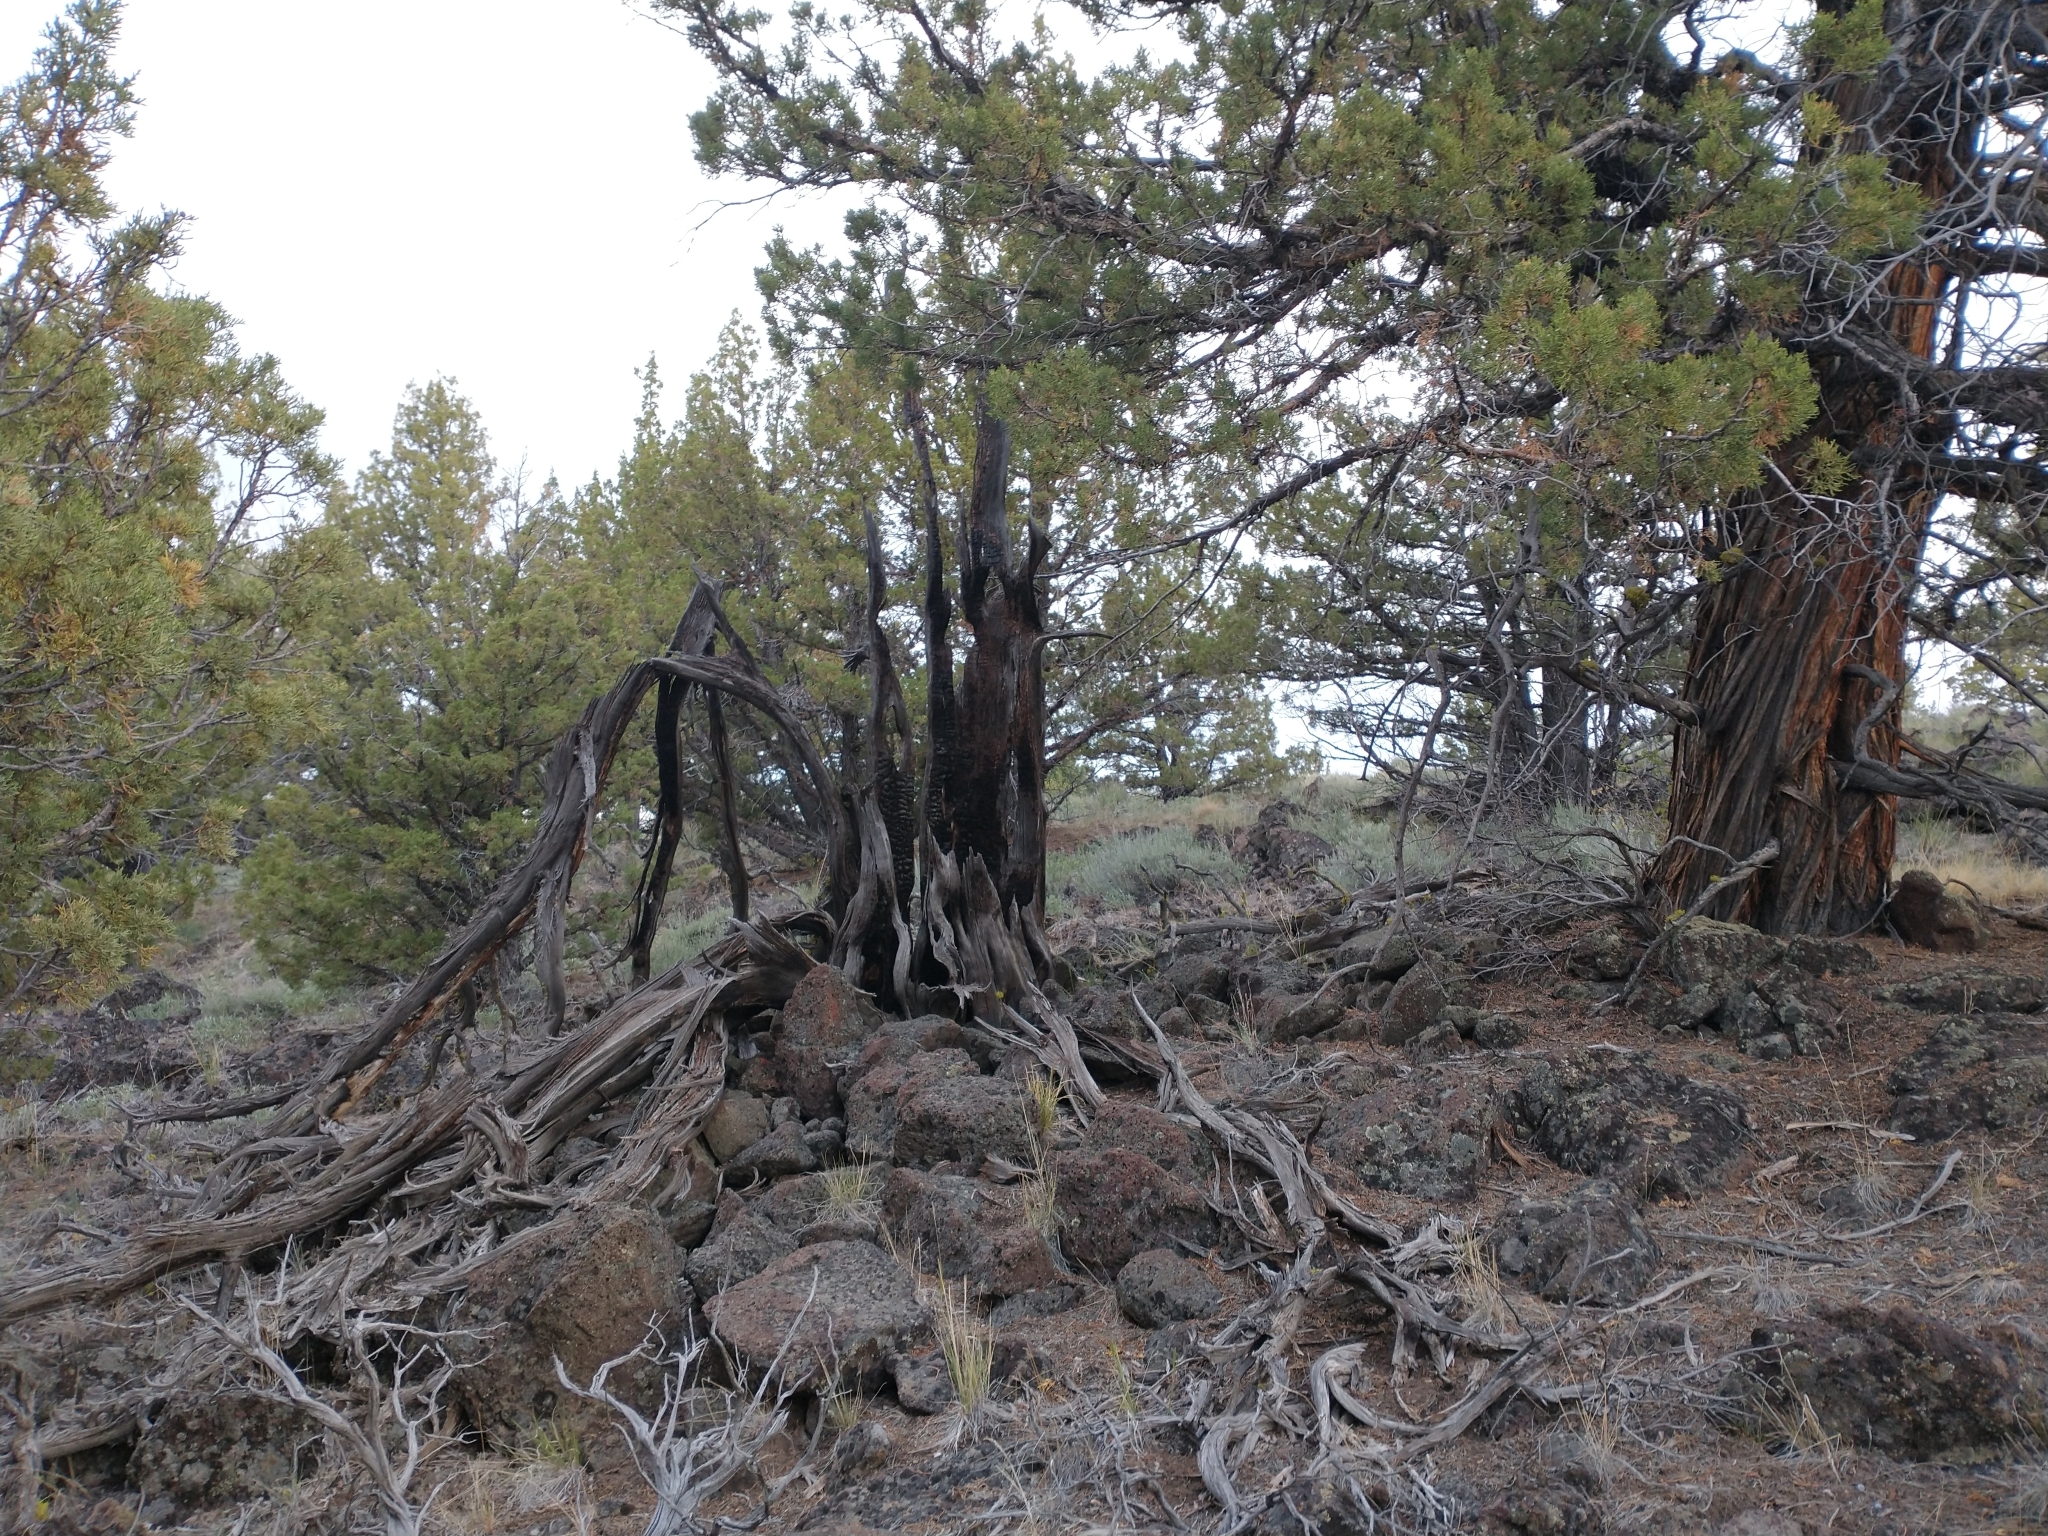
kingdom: Plantae
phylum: Tracheophyta
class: Pinopsida
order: Pinales
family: Cupressaceae
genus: Juniperus
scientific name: Juniperus occidentalis
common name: Western juniper
